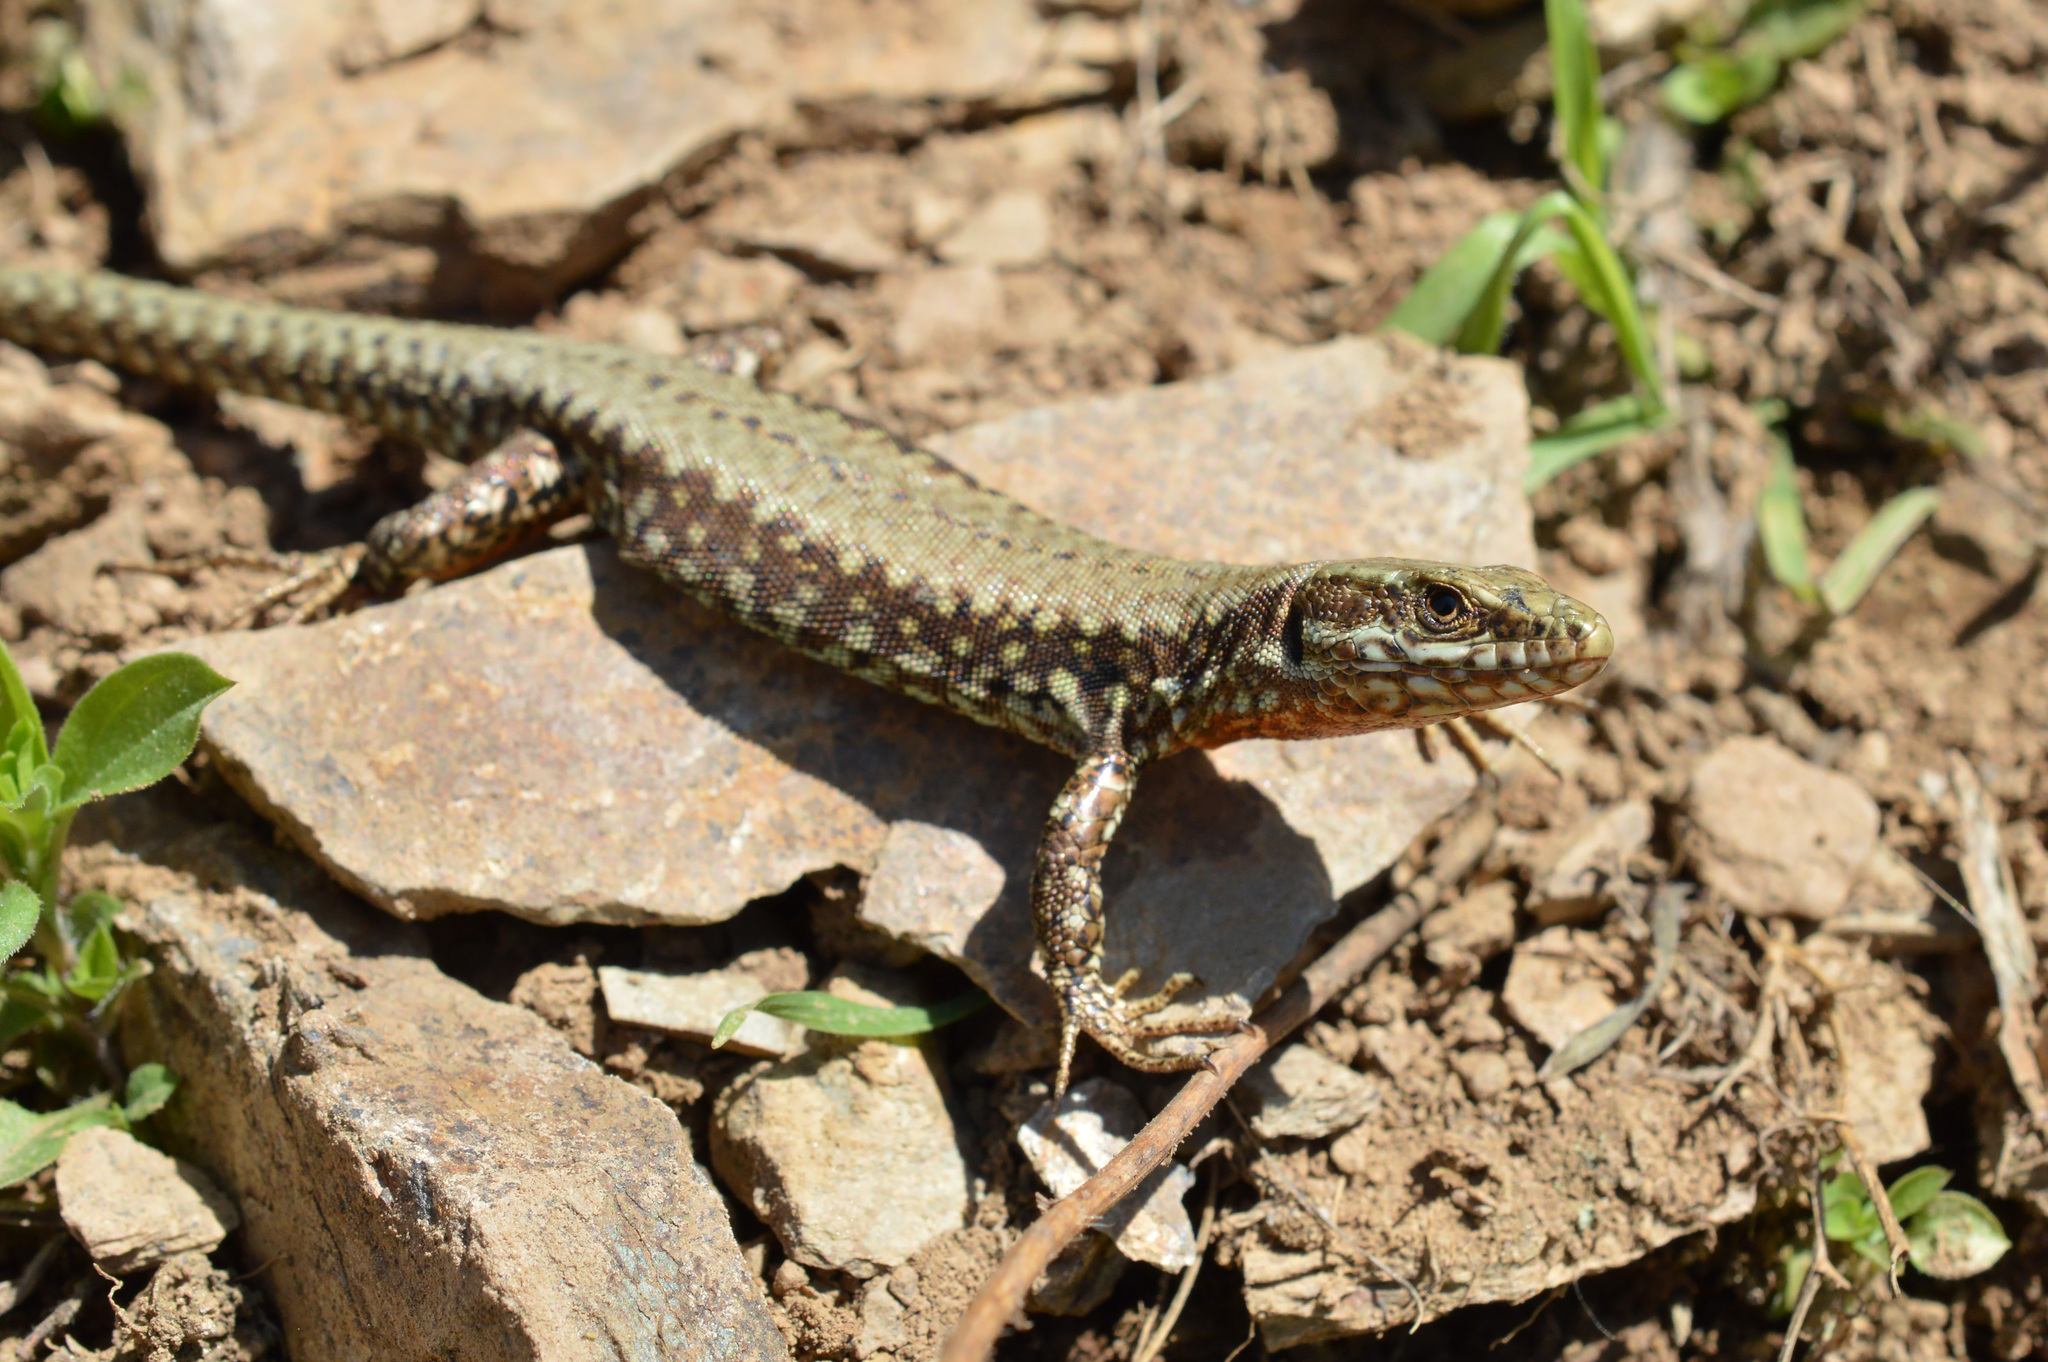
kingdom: Animalia
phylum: Chordata
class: Squamata
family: Lacertidae
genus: Podarcis
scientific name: Podarcis muralis
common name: Common wall lizard
